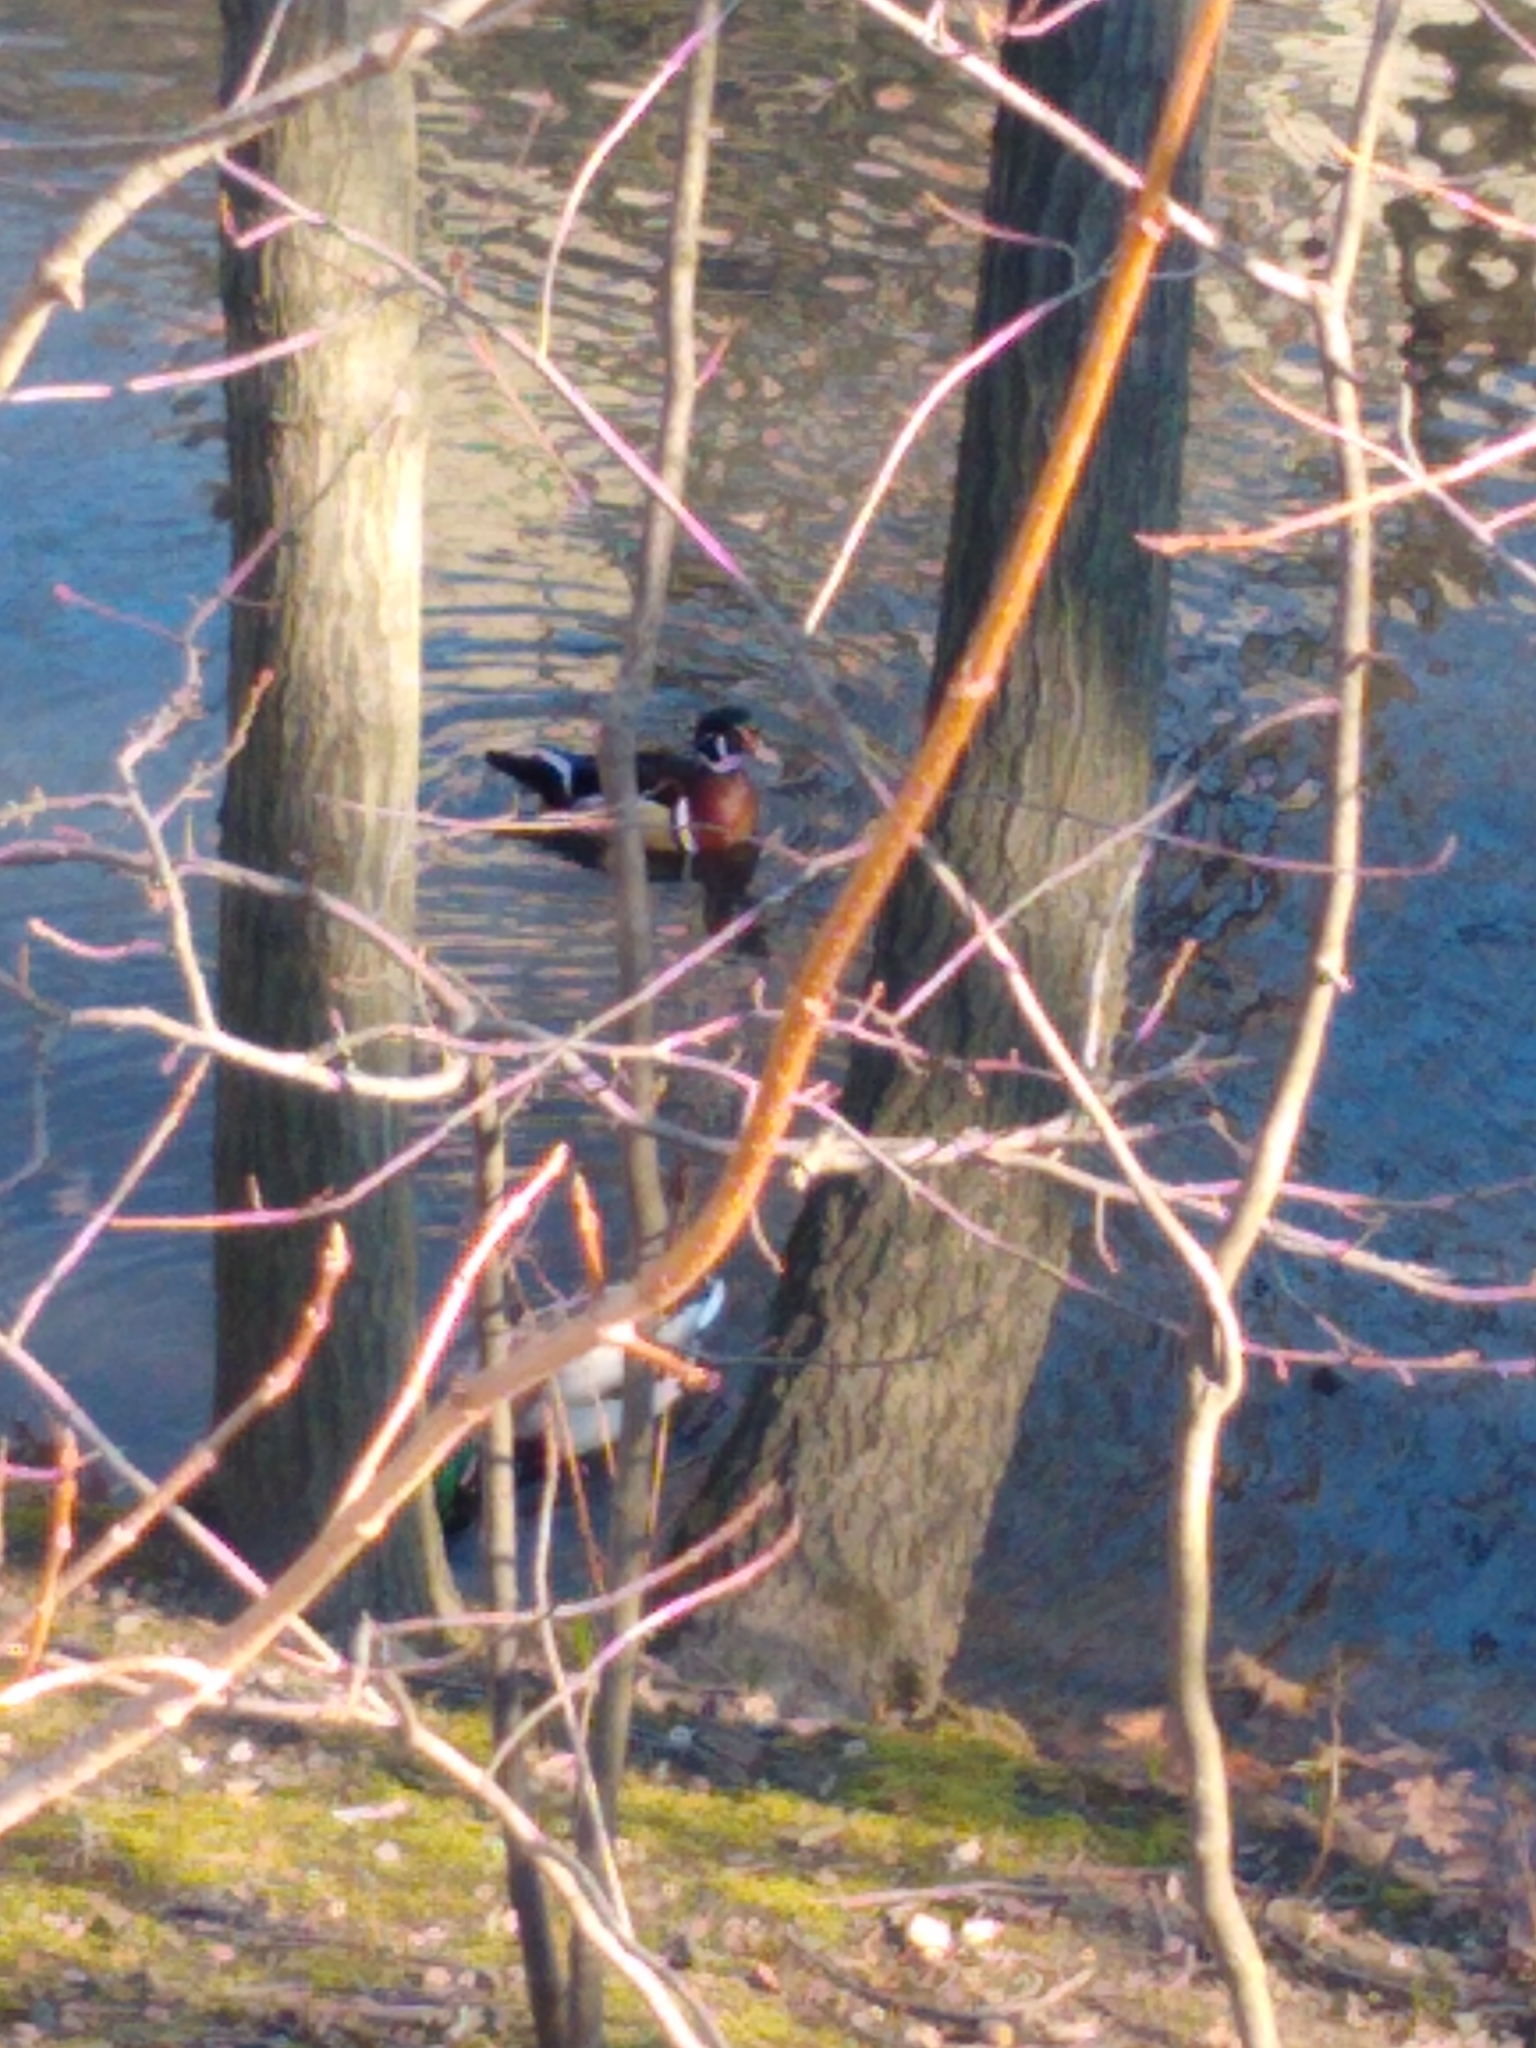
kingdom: Animalia
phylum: Chordata
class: Aves
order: Anseriformes
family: Anatidae
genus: Aix
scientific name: Aix sponsa
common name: Wood duck
